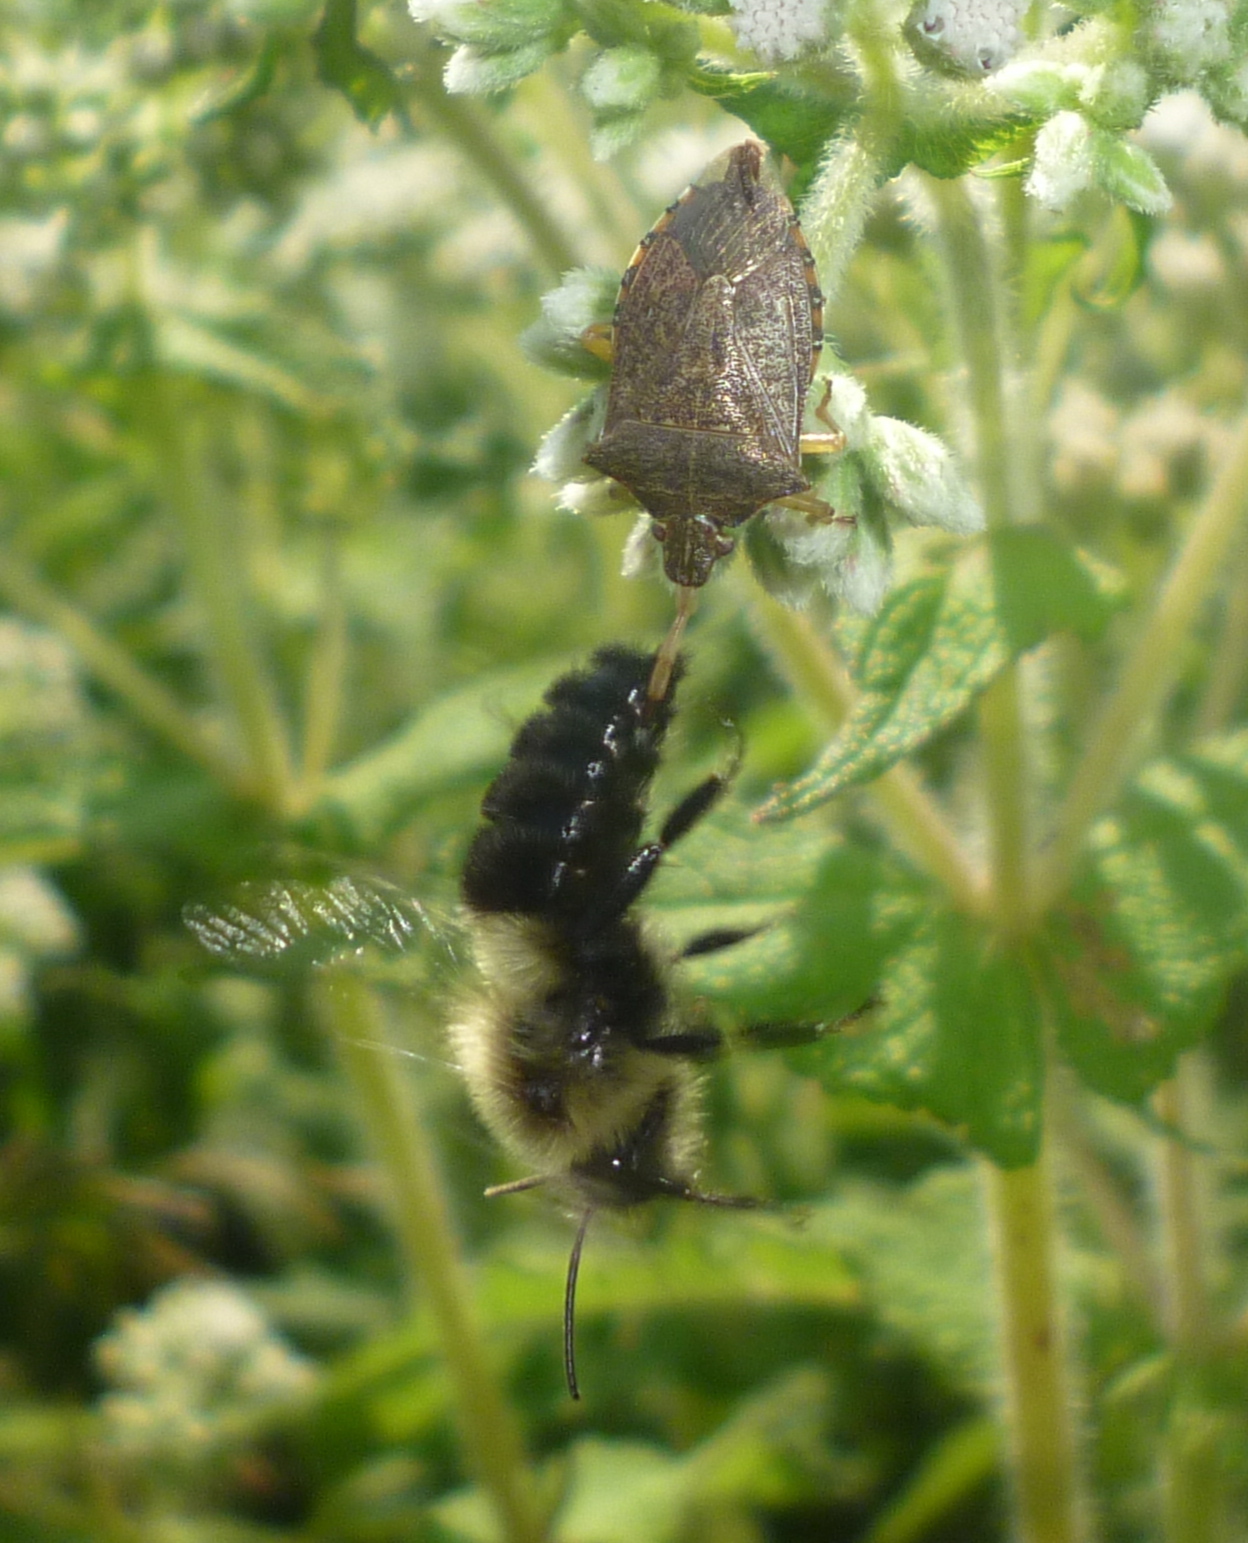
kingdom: Animalia
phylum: Arthropoda
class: Insecta
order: Hemiptera
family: Pentatomidae
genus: Podisus
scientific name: Podisus maculiventris
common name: Spined soldier bug
